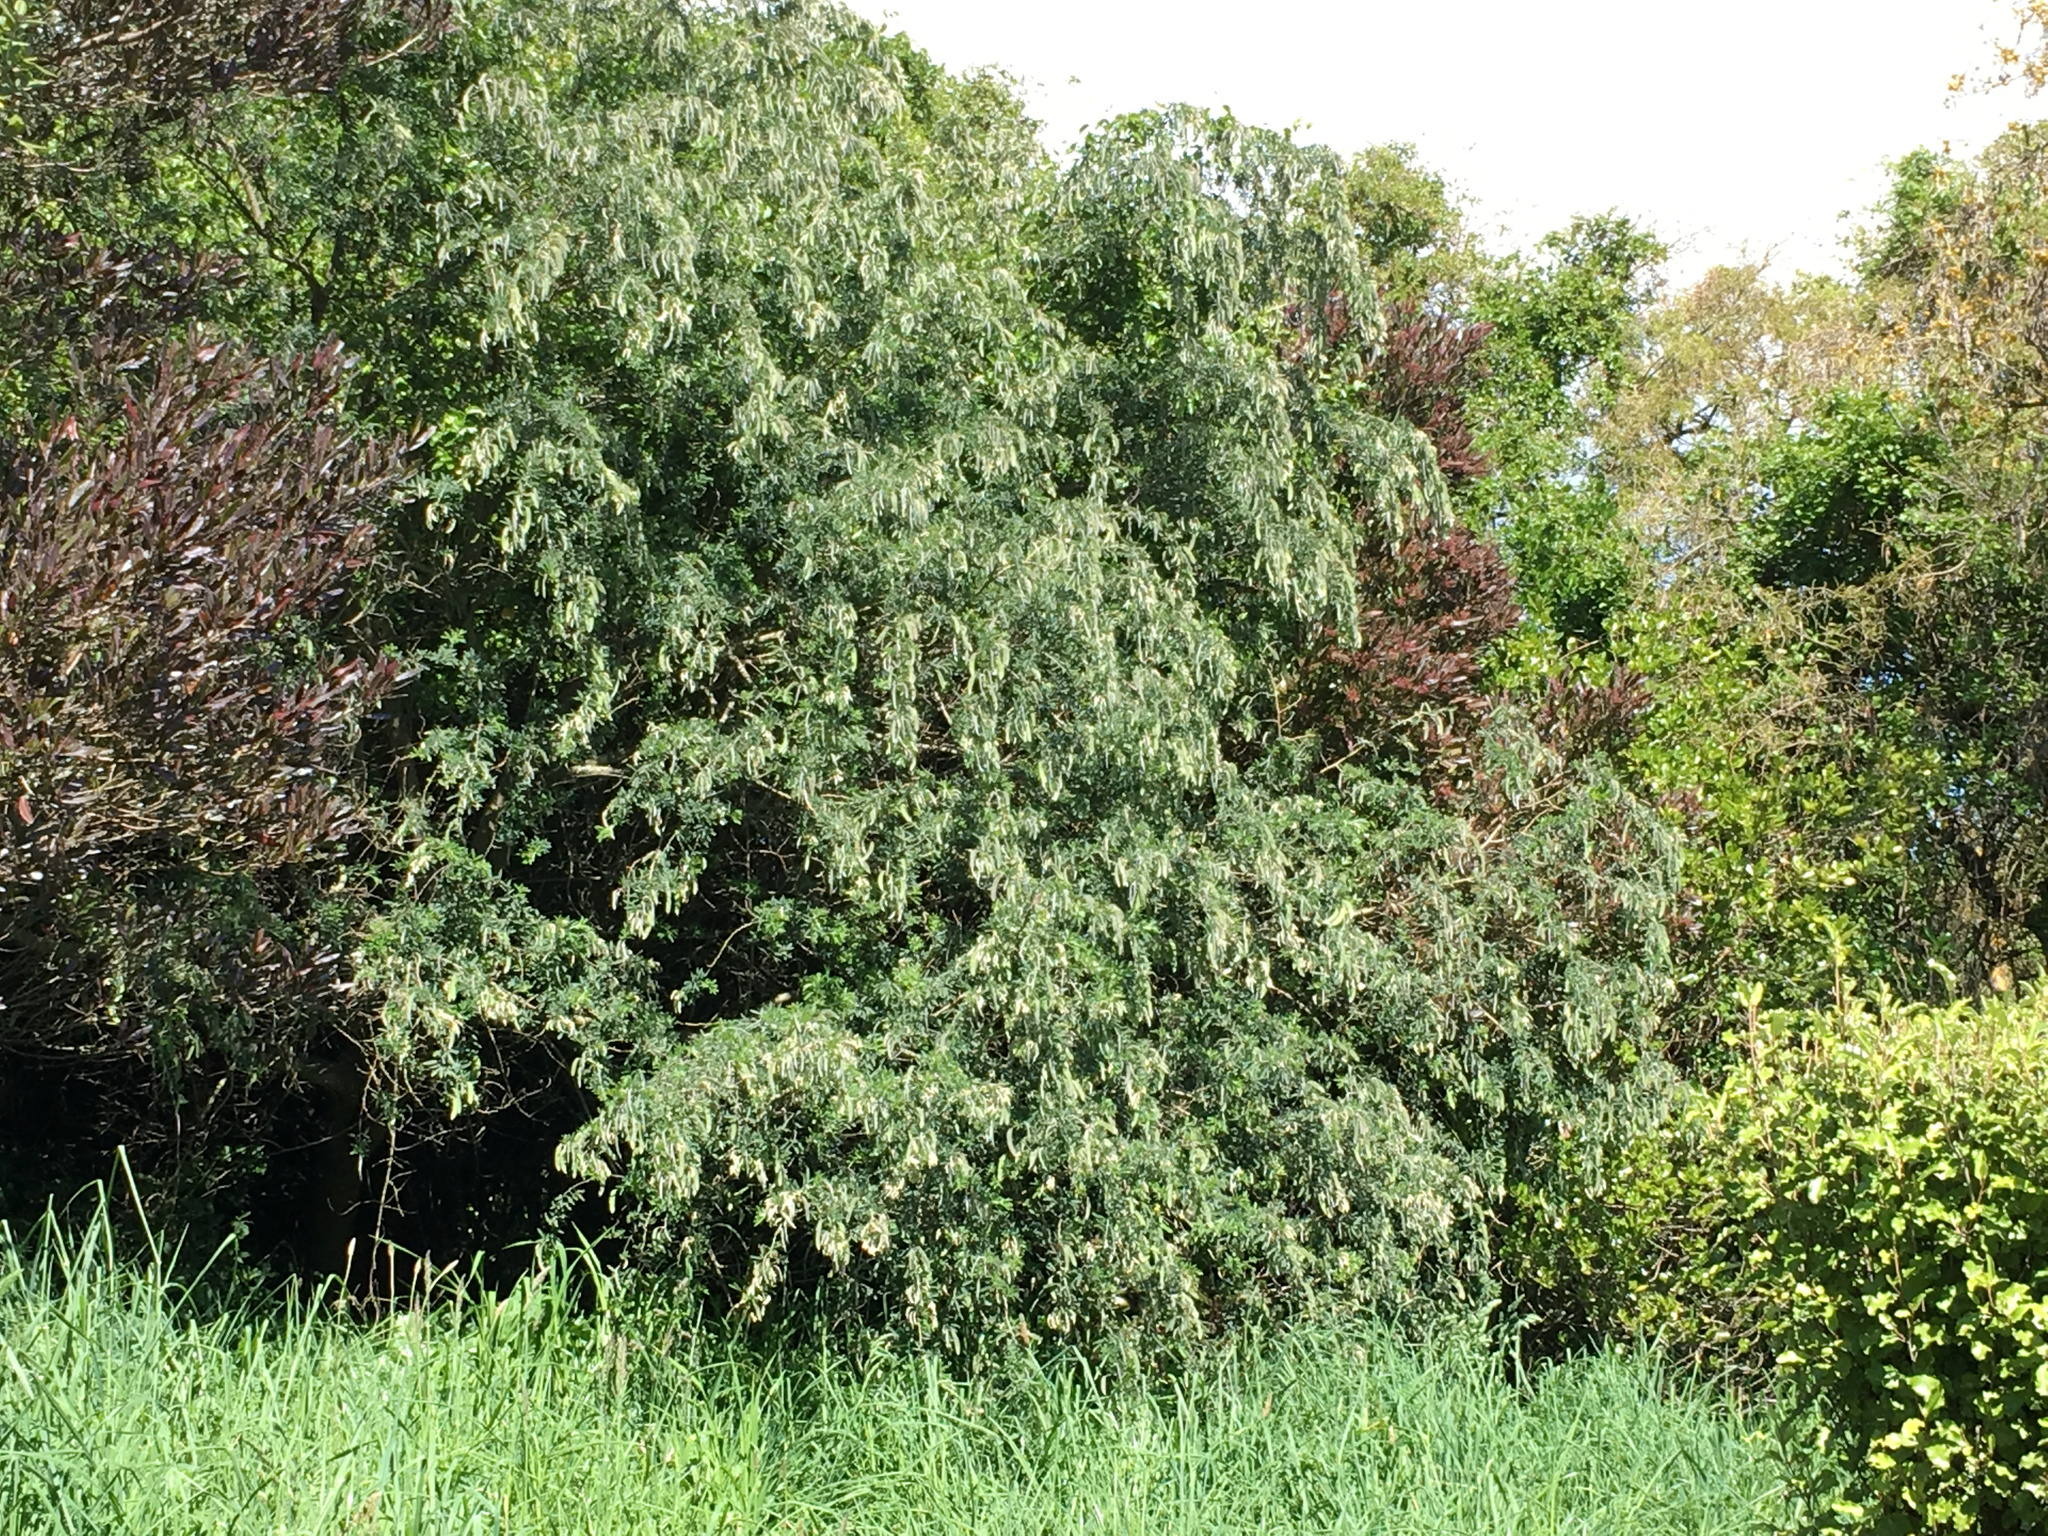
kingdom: Plantae
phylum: Tracheophyta
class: Magnoliopsida
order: Fabales
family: Fabaceae
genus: Chamaecytisus
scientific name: Chamaecytisus prolifer
